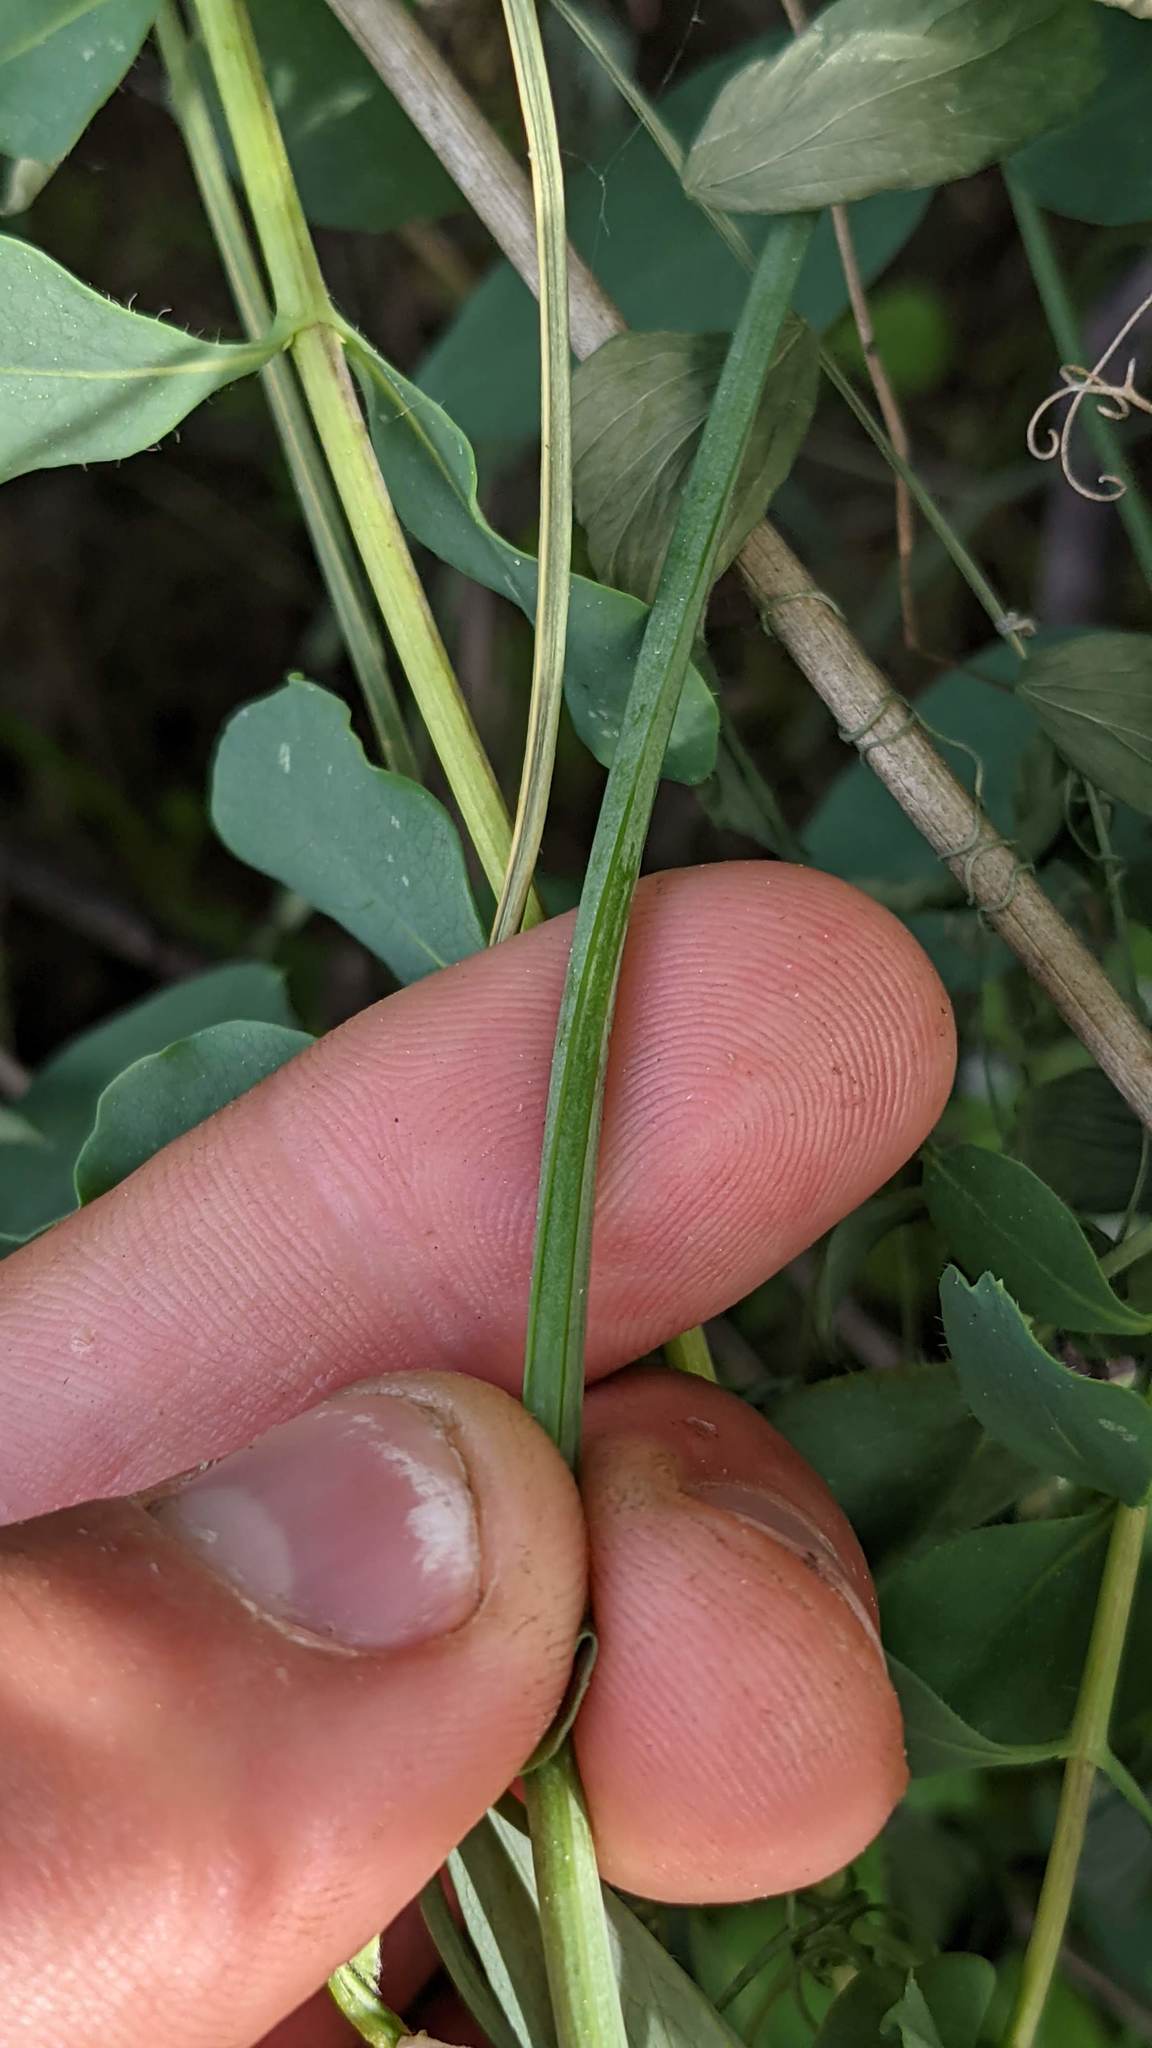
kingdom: Plantae
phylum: Tracheophyta
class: Magnoliopsida
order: Fabales
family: Fabaceae
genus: Lathyrus
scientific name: Lathyrus sulphureus
